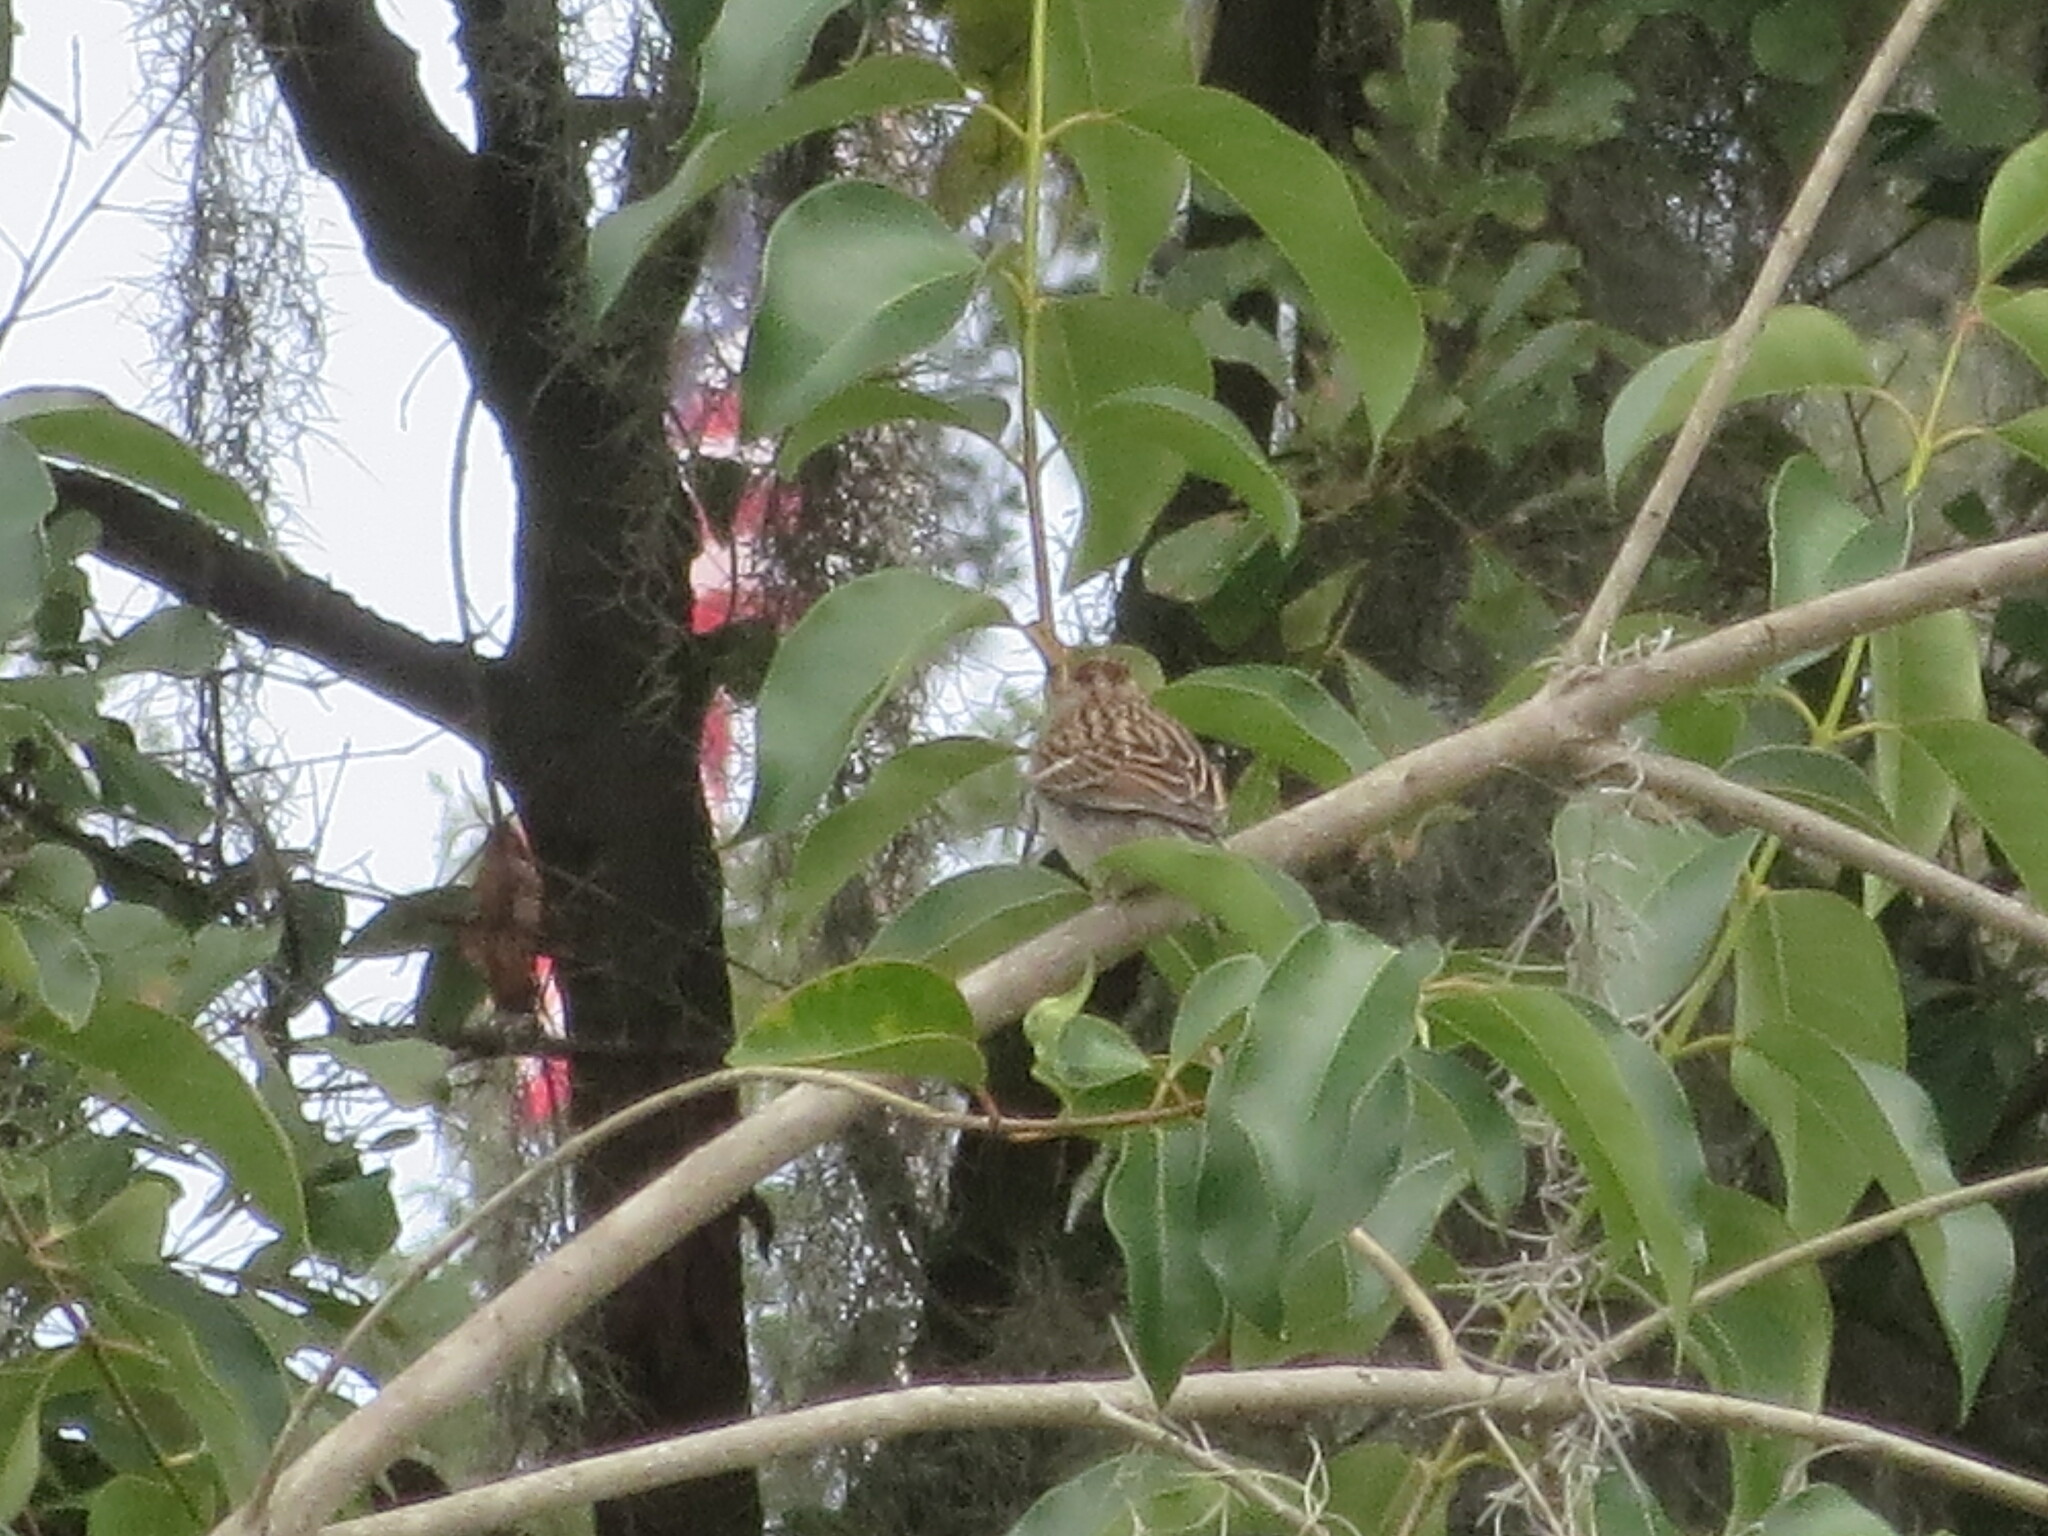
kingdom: Animalia
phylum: Chordata
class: Aves
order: Passeriformes
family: Passerellidae
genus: Spizella
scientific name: Spizella passerina
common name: Chipping sparrow
